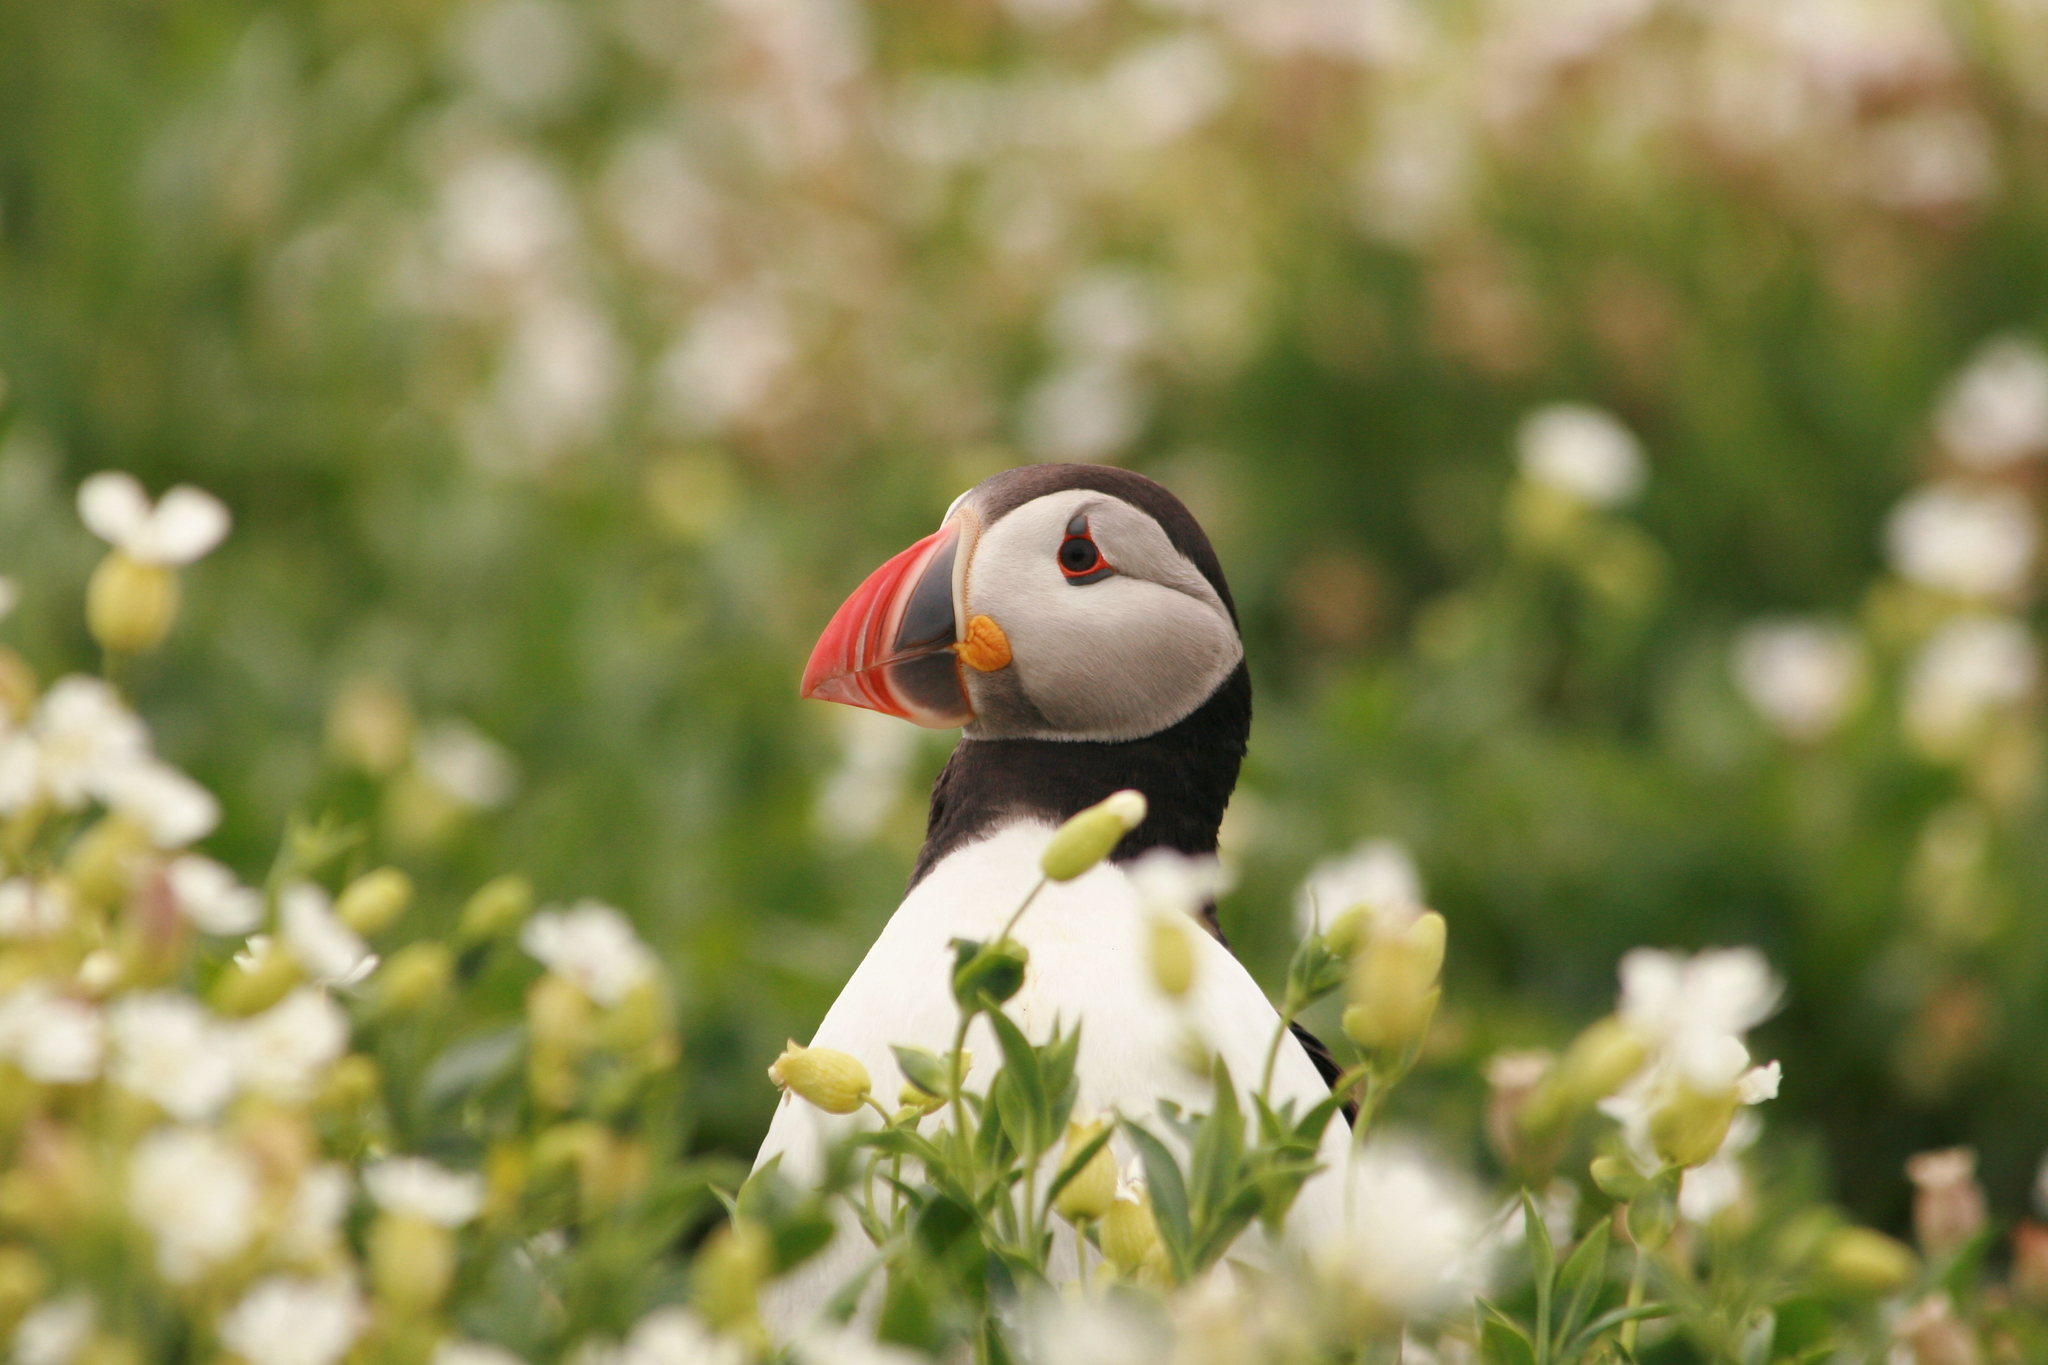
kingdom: Animalia
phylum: Chordata
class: Aves
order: Charadriiformes
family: Alcidae
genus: Fratercula
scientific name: Fratercula arctica
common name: Atlantic puffin
